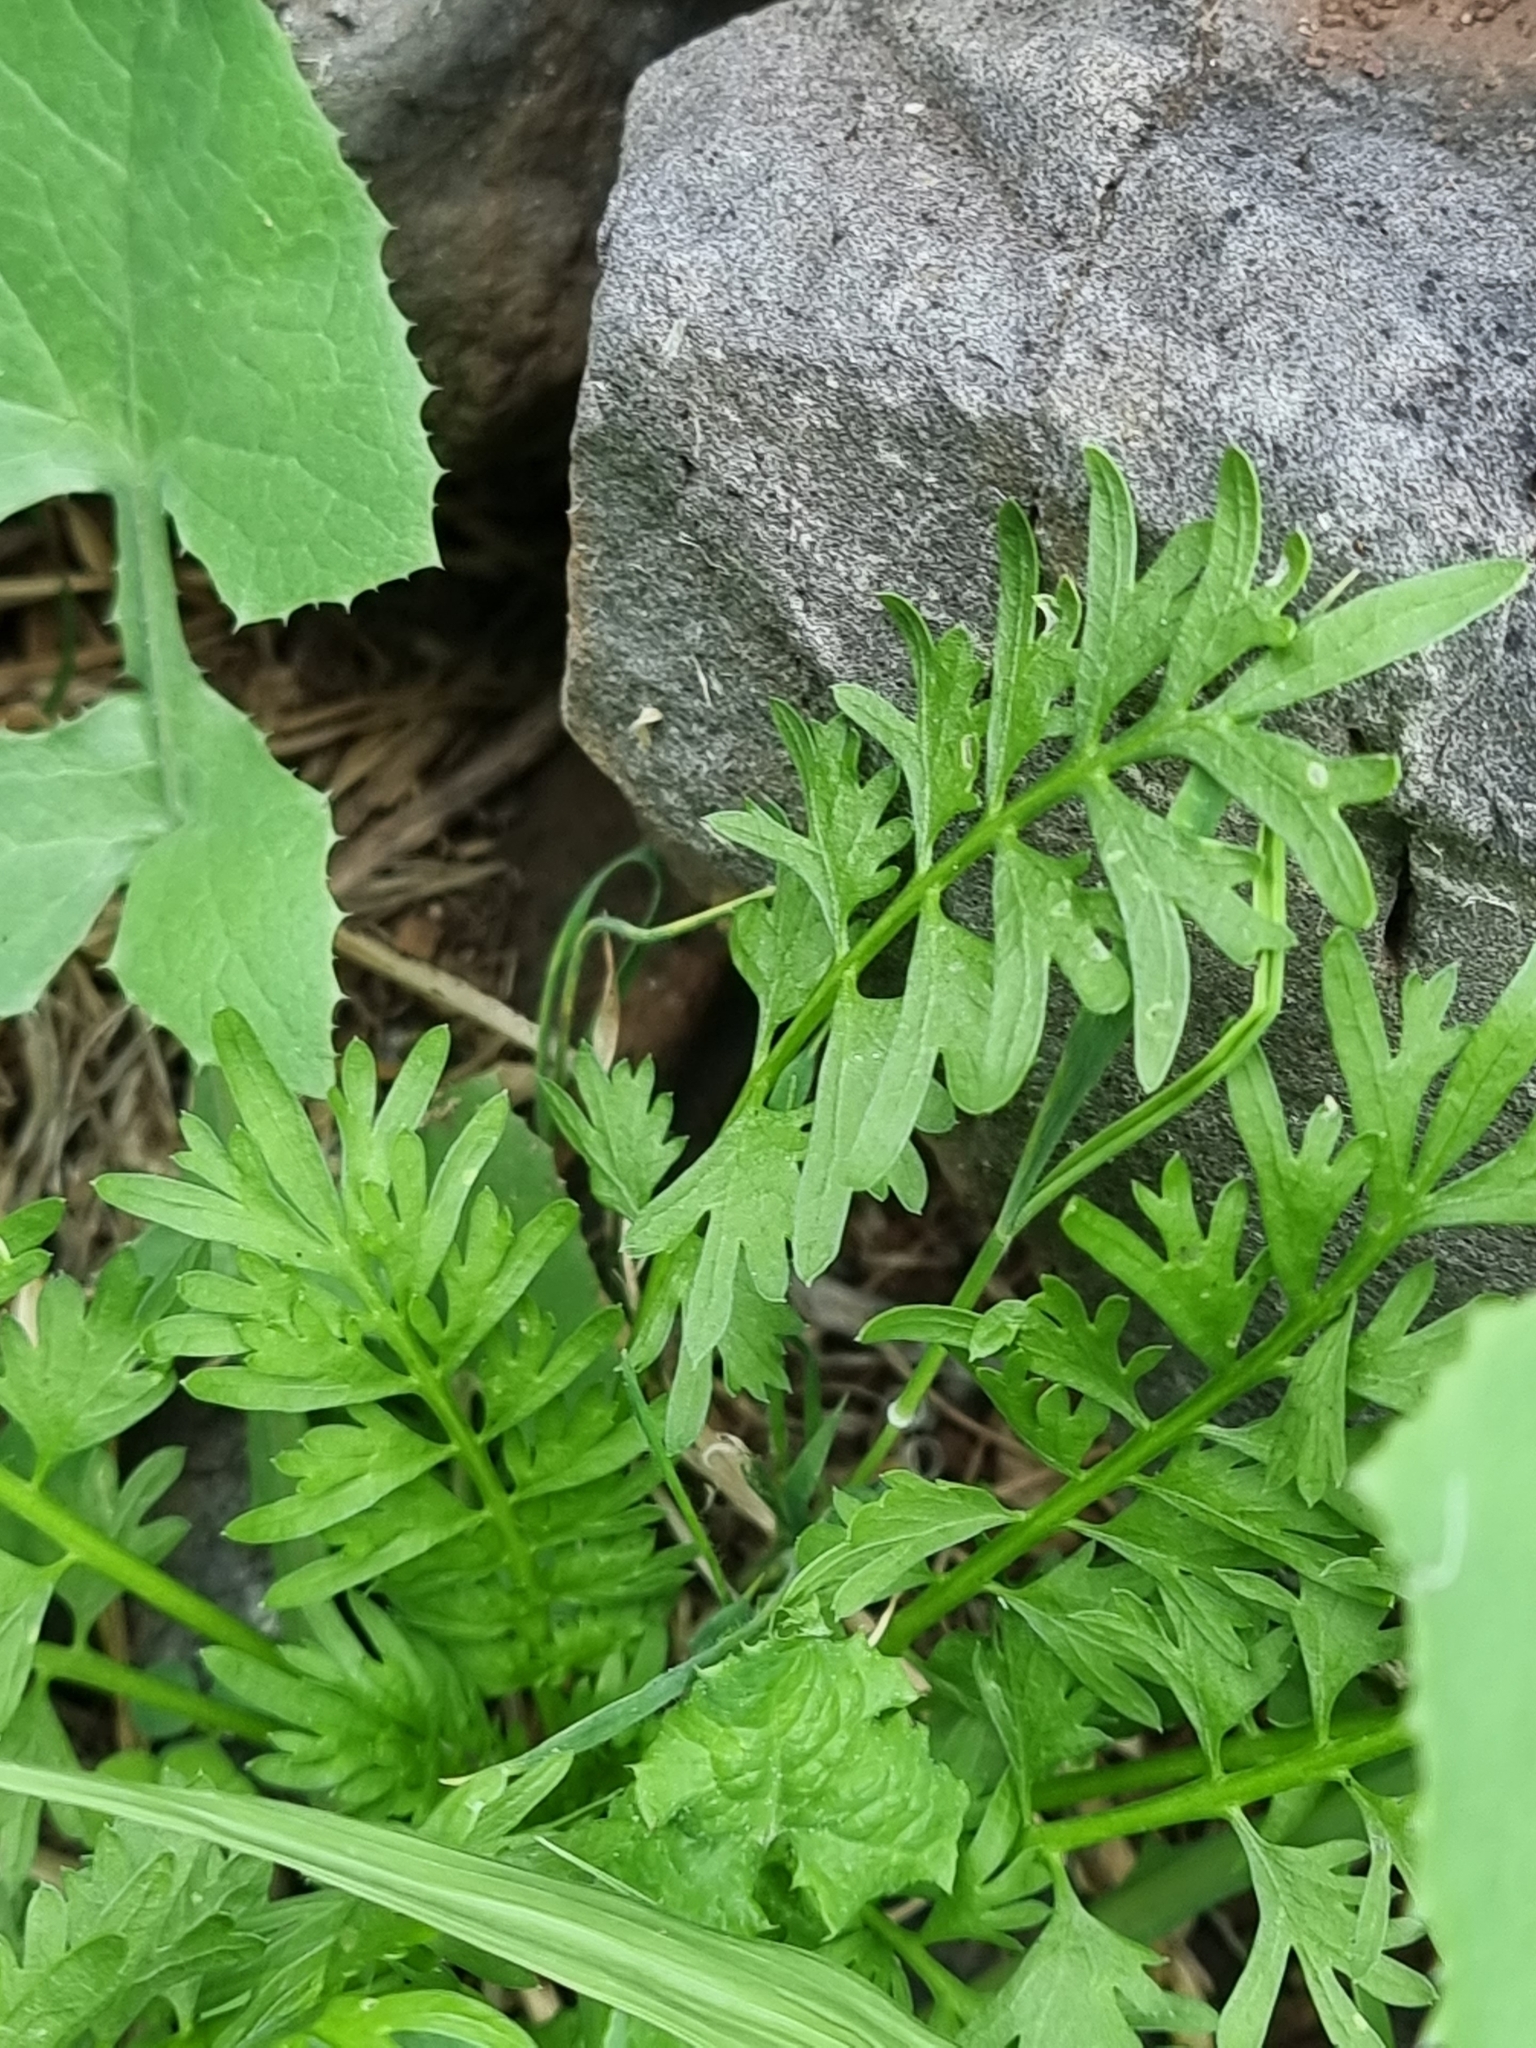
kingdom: Plantae
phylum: Tracheophyta
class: Magnoliopsida
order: Brassicales
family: Brassicaceae
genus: Lepidium
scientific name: Lepidium didymum
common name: Lesser swinecress
